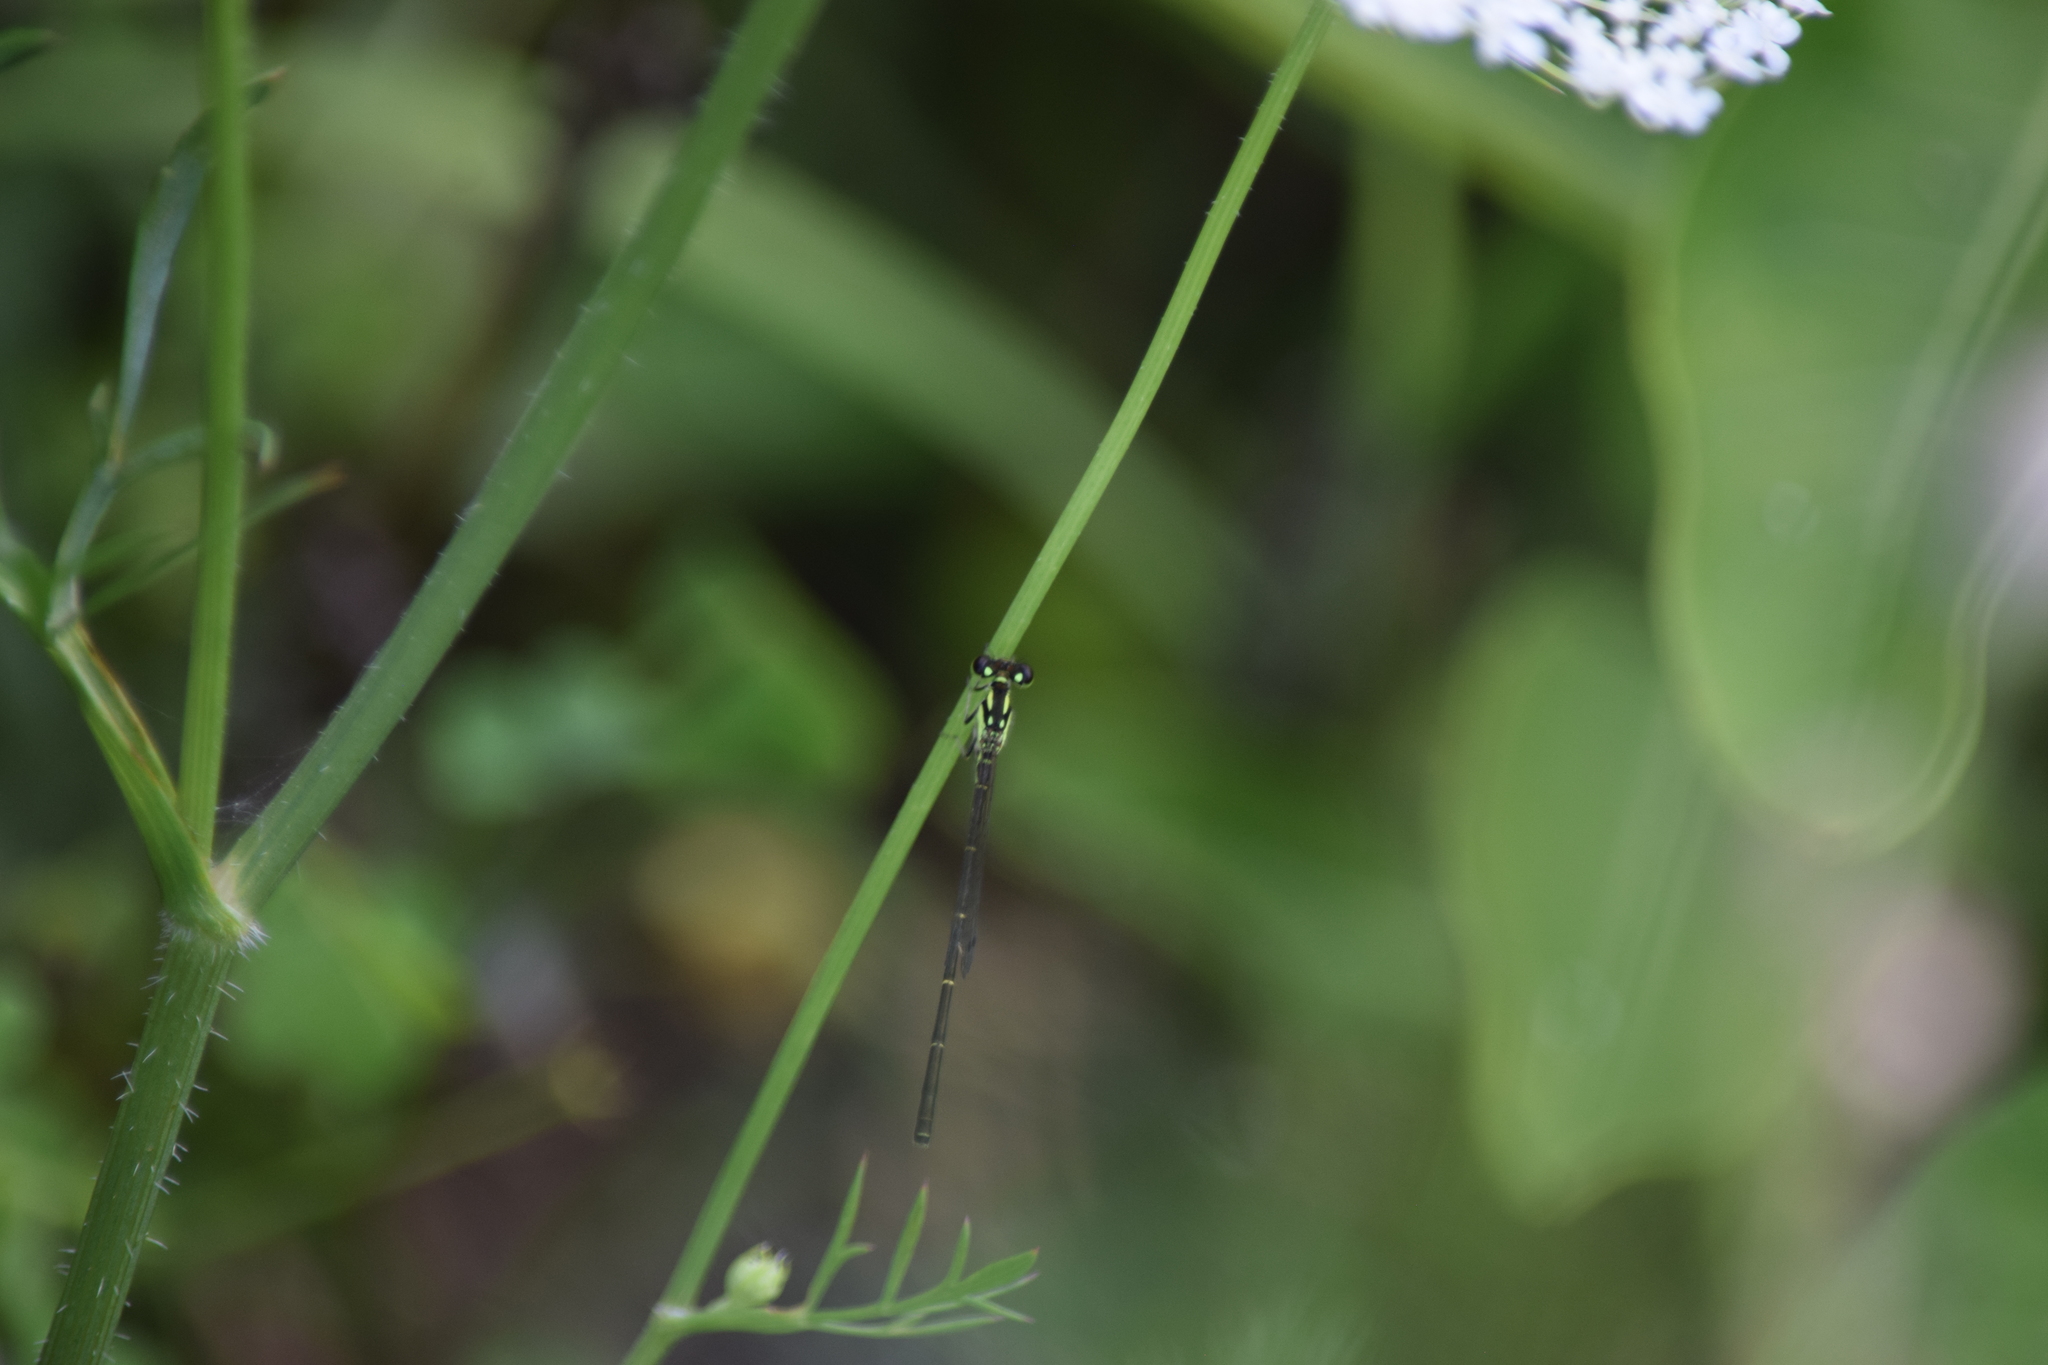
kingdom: Animalia
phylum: Arthropoda
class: Insecta
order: Odonata
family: Coenagrionidae
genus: Ischnura
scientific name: Ischnura posita
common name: Fragile forktail
